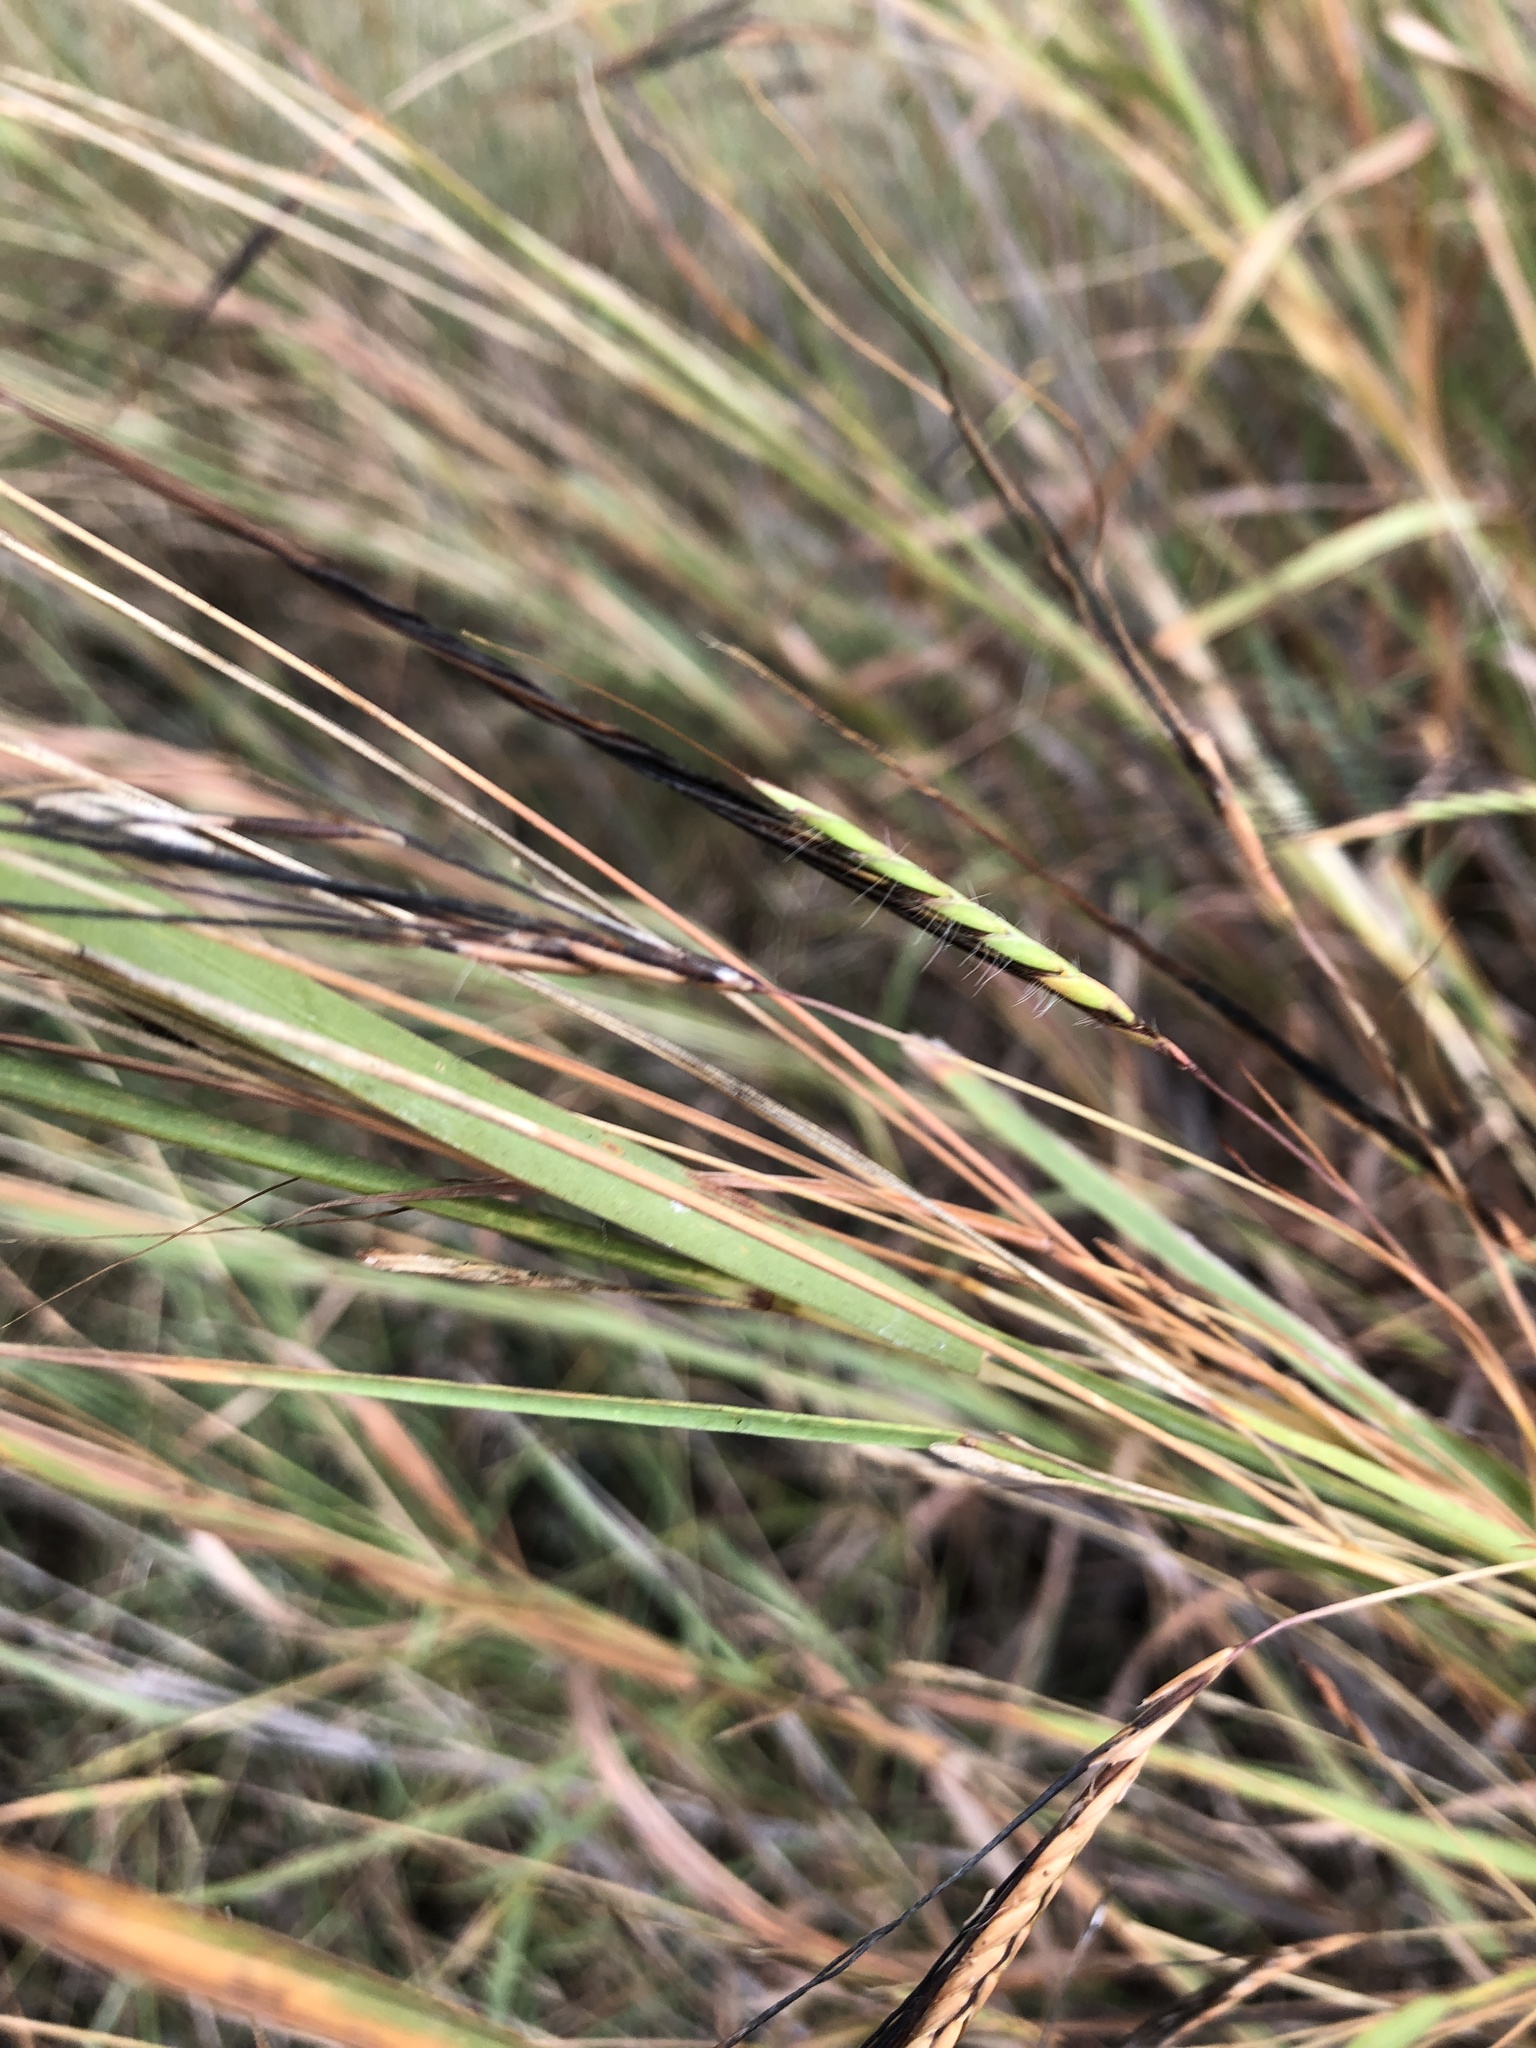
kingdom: Plantae
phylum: Tracheophyta
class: Liliopsida
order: Poales
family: Poaceae
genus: Heteropogon
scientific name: Heteropogon contortus
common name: Tanglehead
